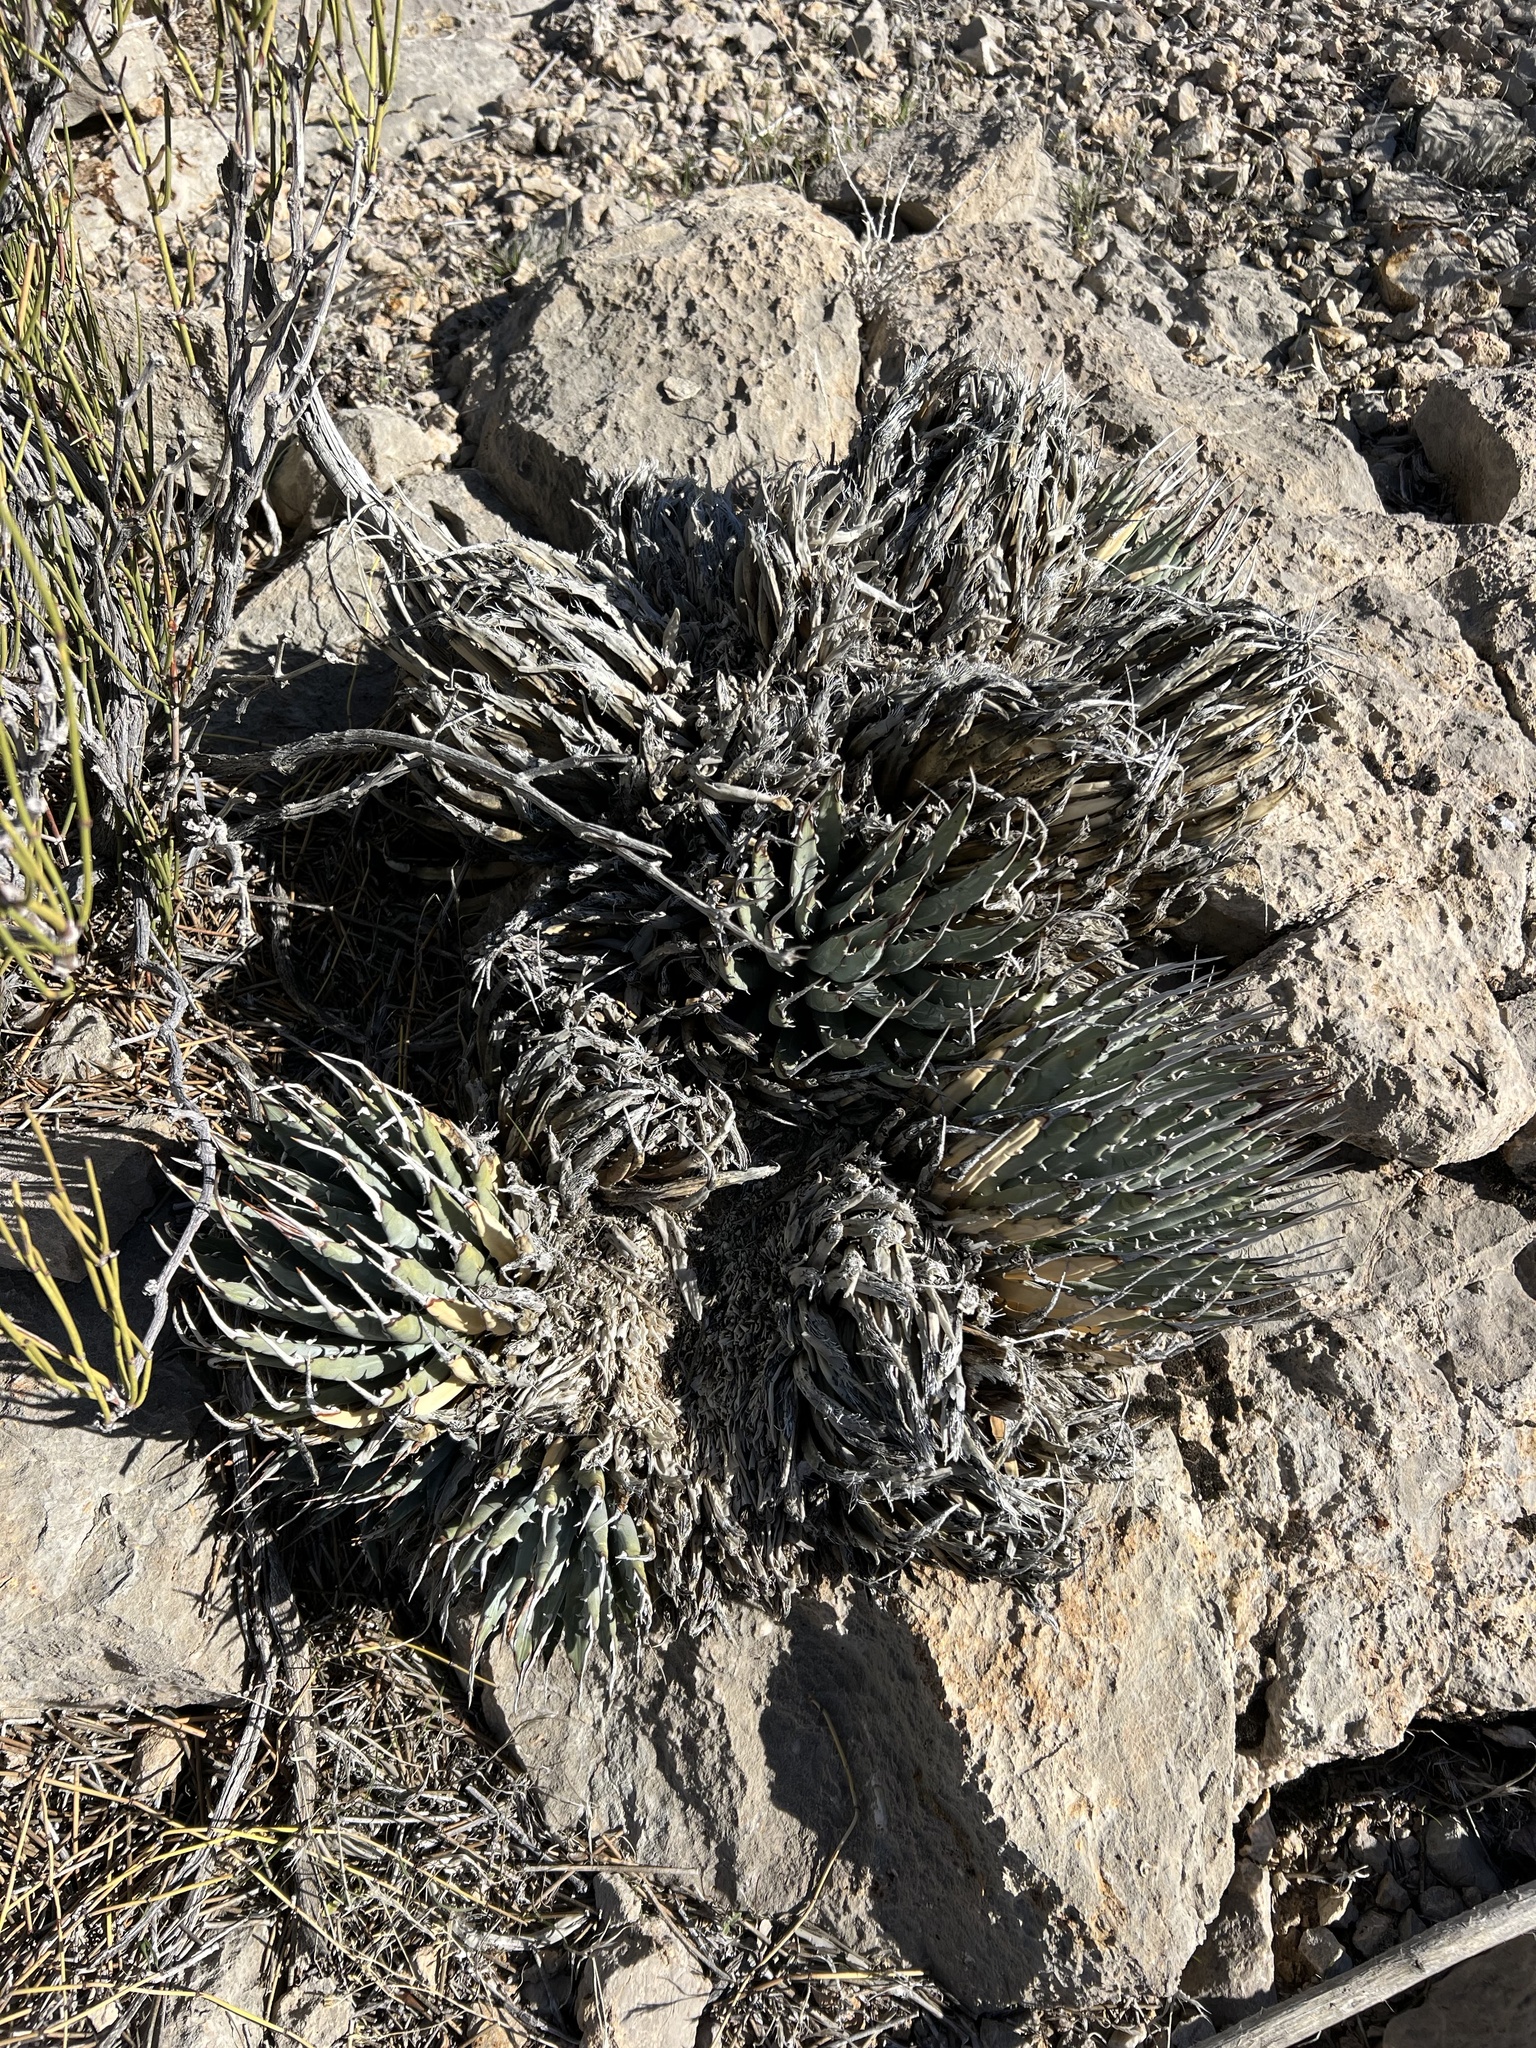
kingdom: Plantae
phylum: Tracheophyta
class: Liliopsida
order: Asparagales
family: Asparagaceae
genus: Agave
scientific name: Agave utahensis
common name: Utah agave
